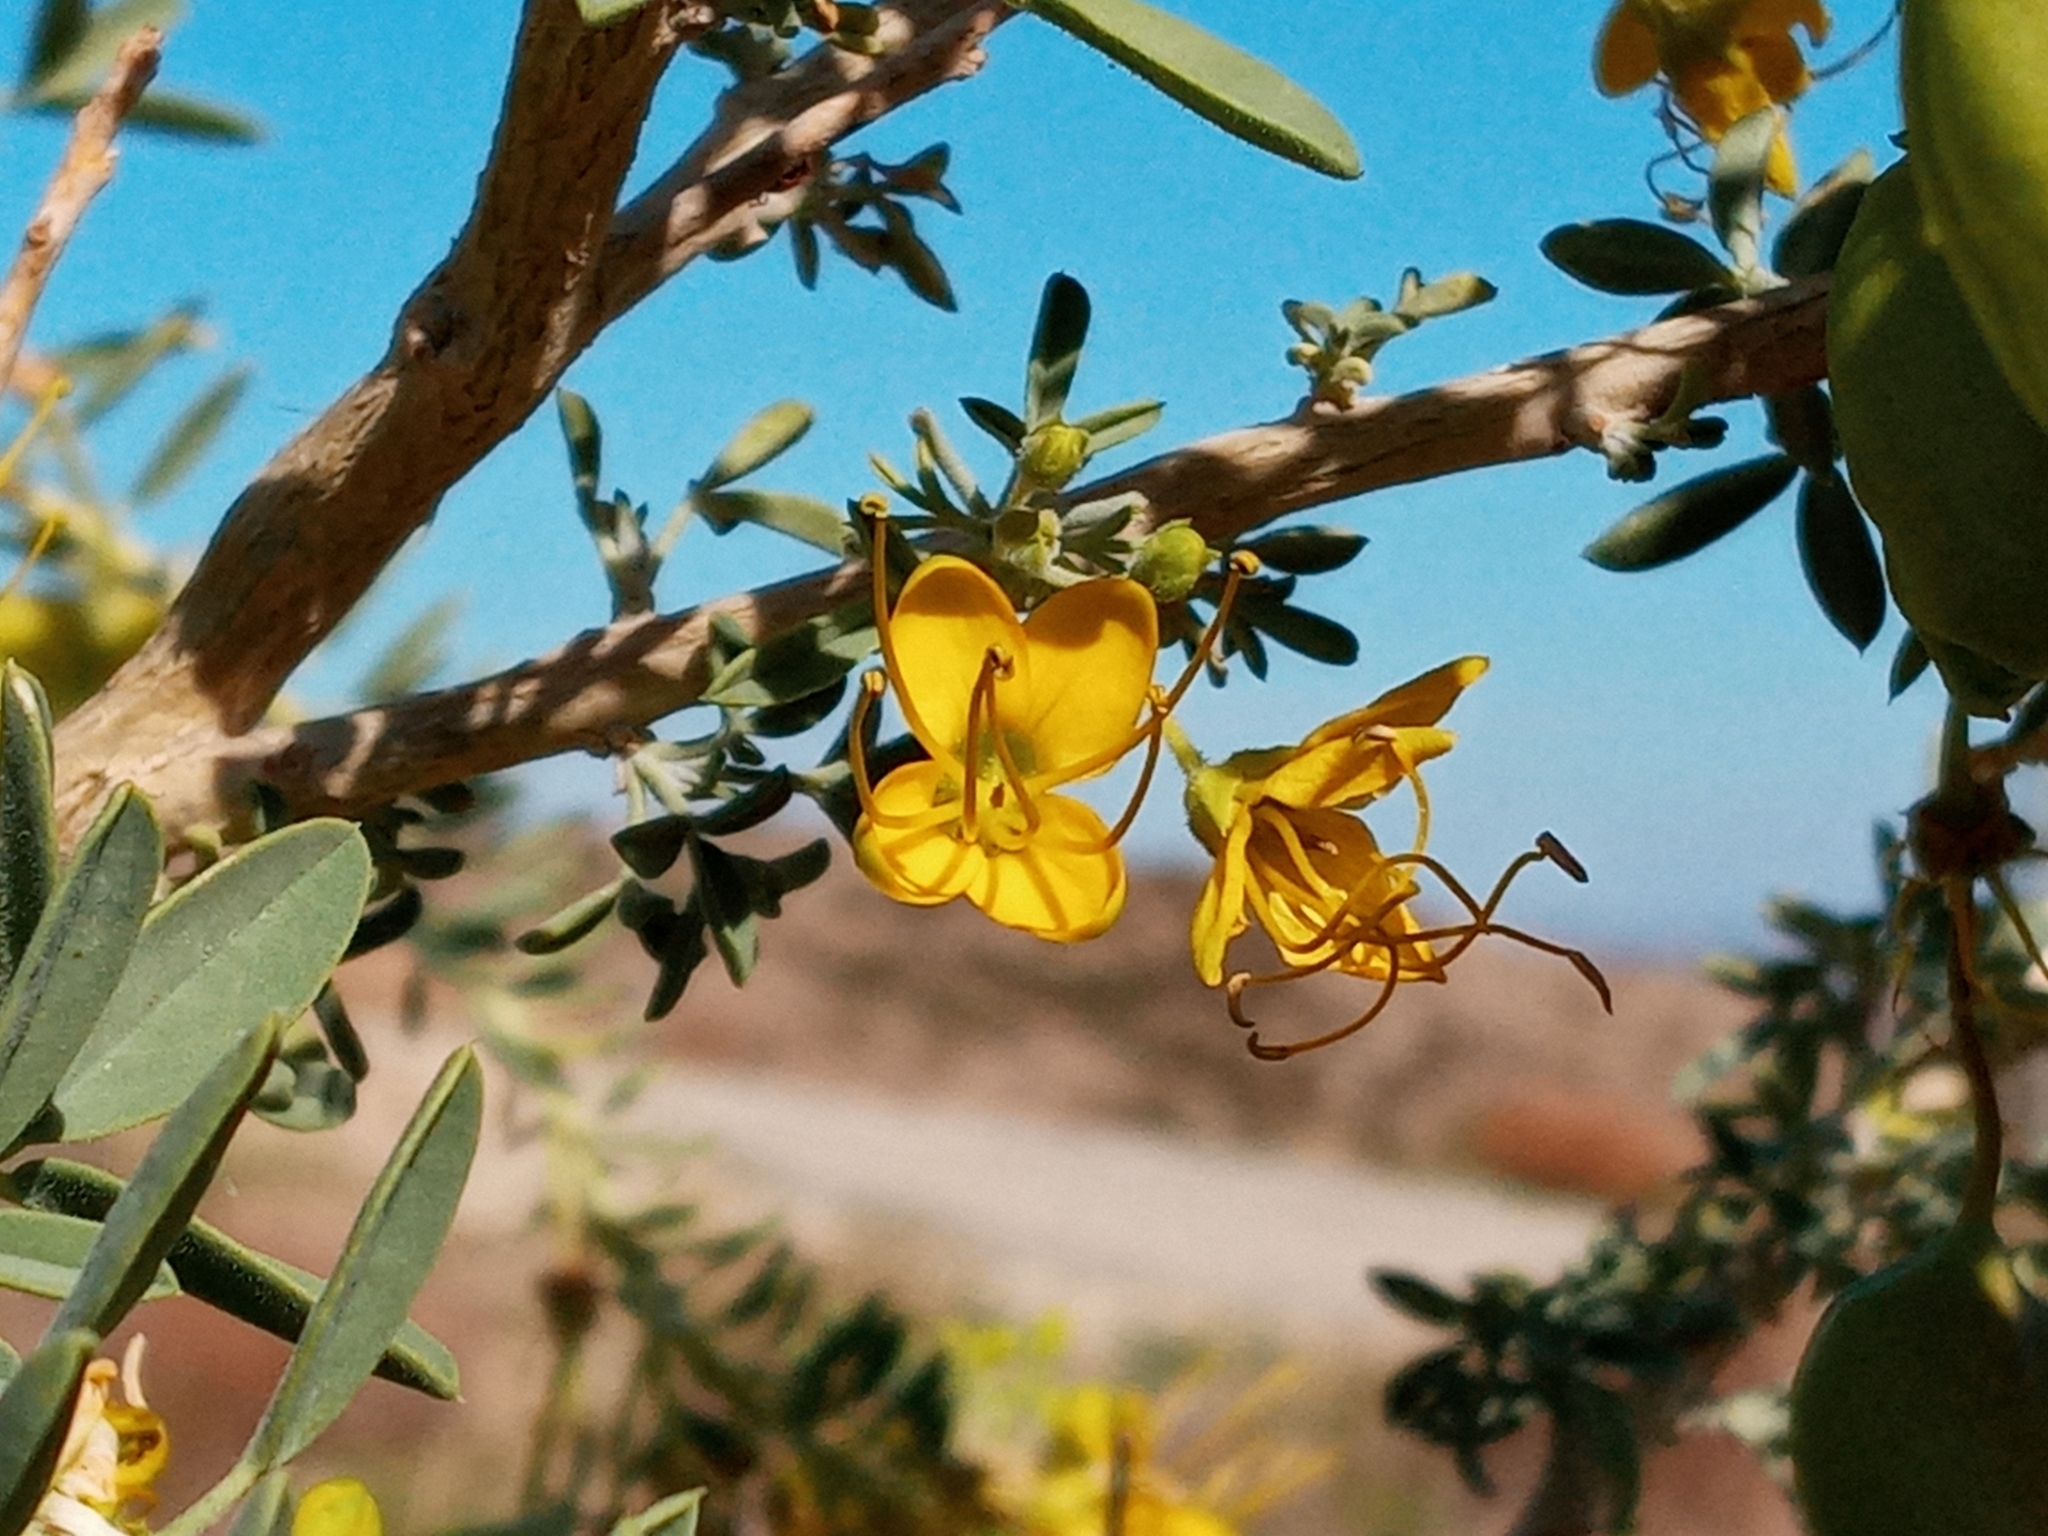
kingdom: Plantae
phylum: Tracheophyta
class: Magnoliopsida
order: Brassicales
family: Cleomaceae
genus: Cleomella
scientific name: Cleomella arborea
